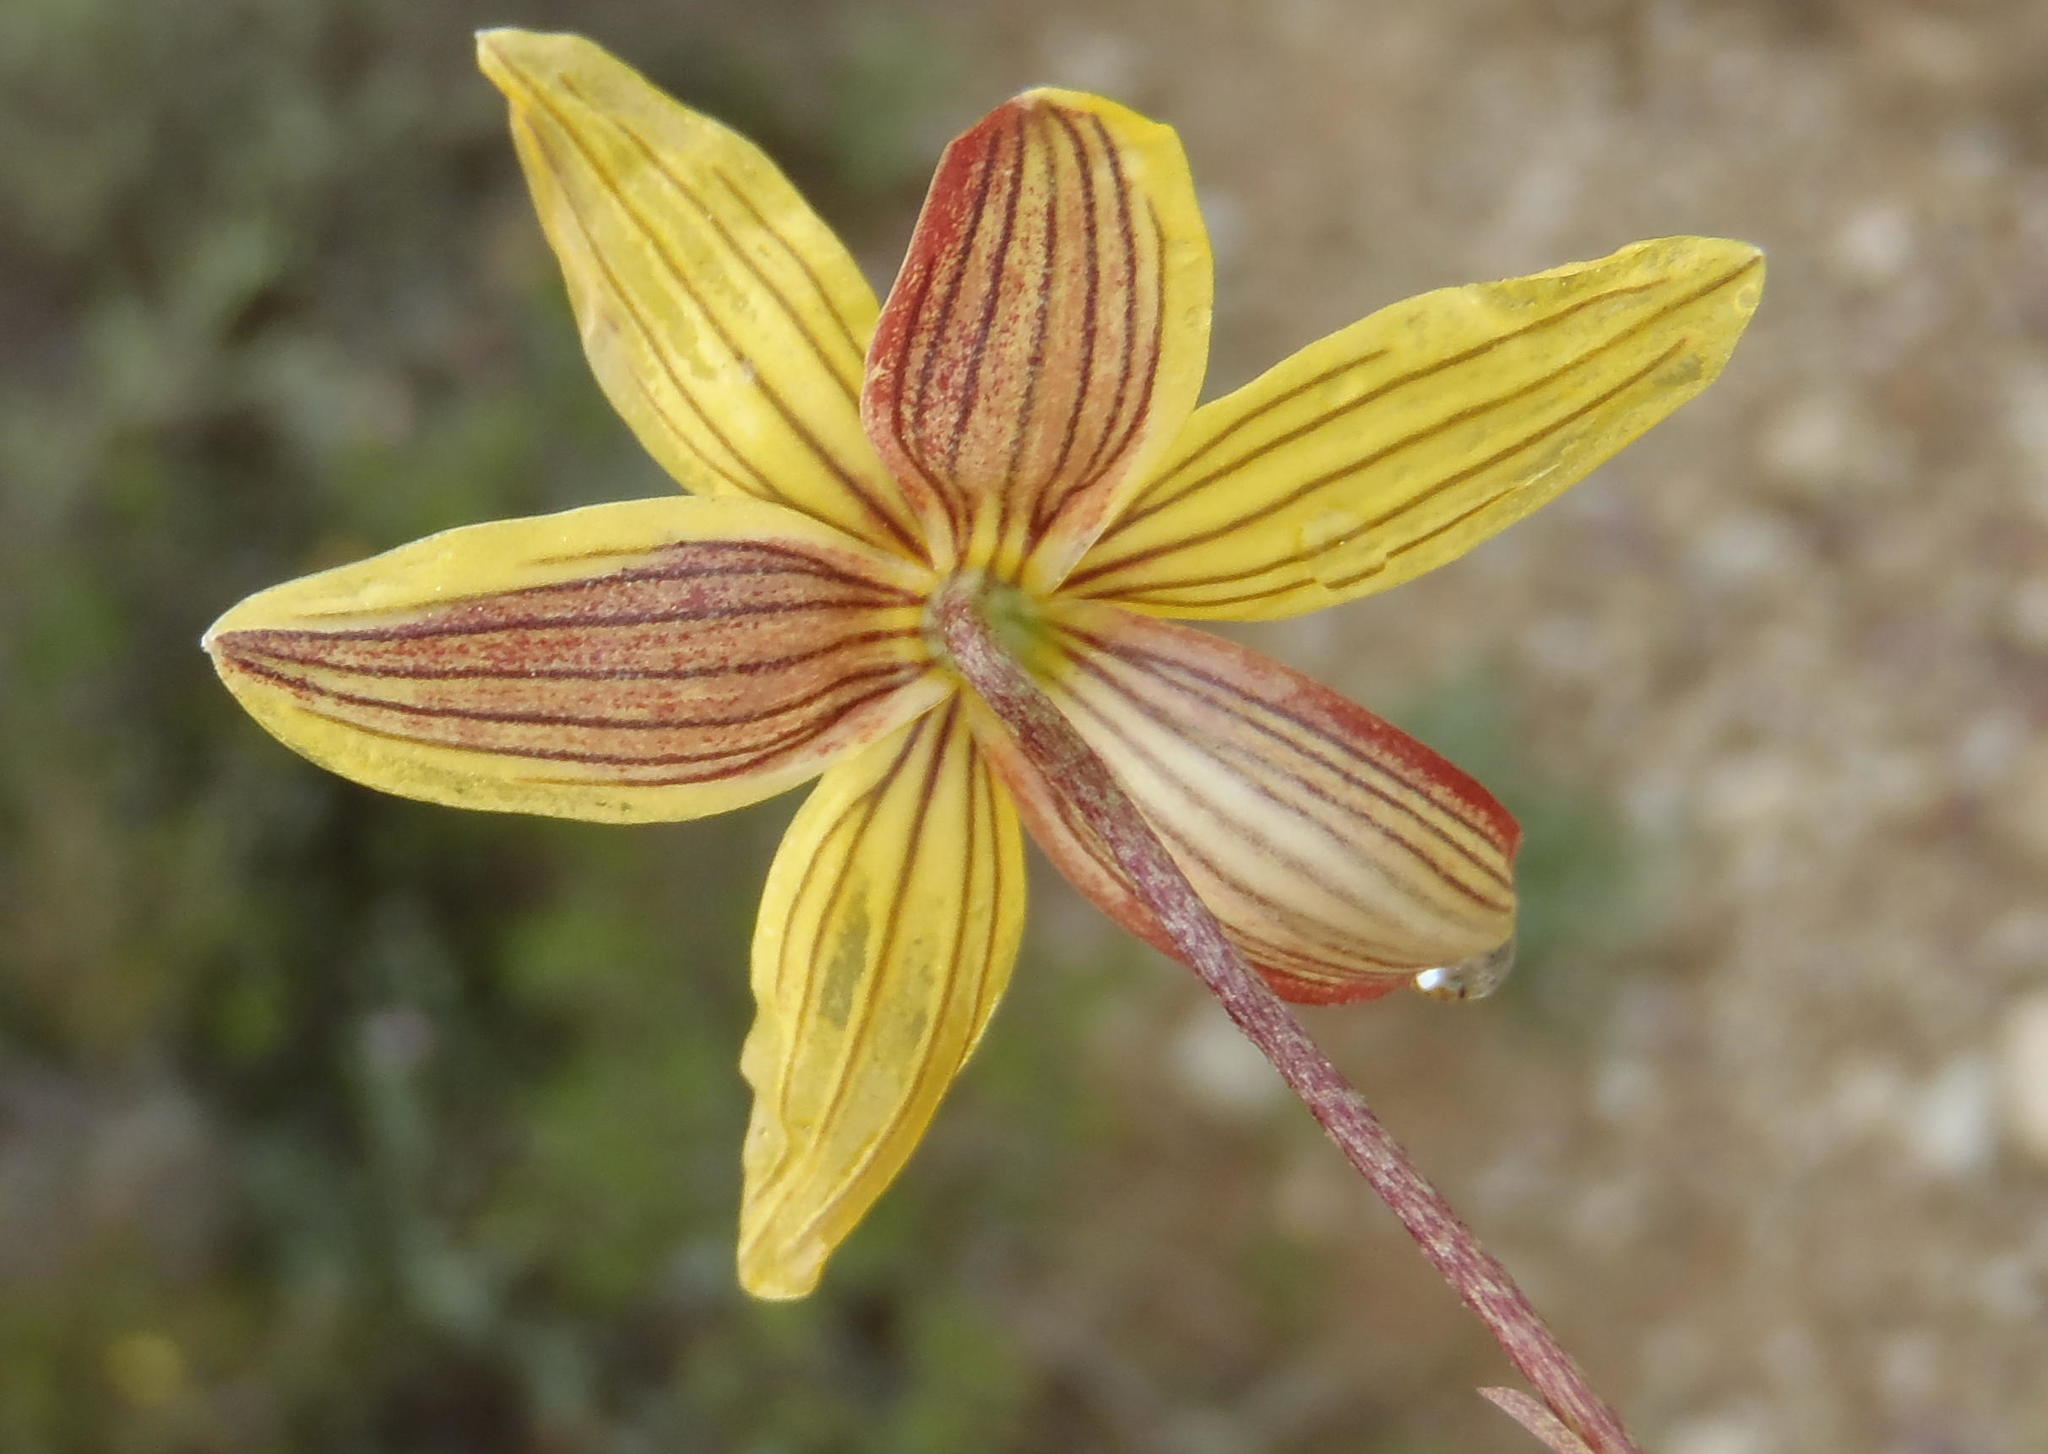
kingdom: Plantae
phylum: Tracheophyta
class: Liliopsida
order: Asparagales
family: Tecophilaeaceae
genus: Cyanella
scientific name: Cyanella lutea
